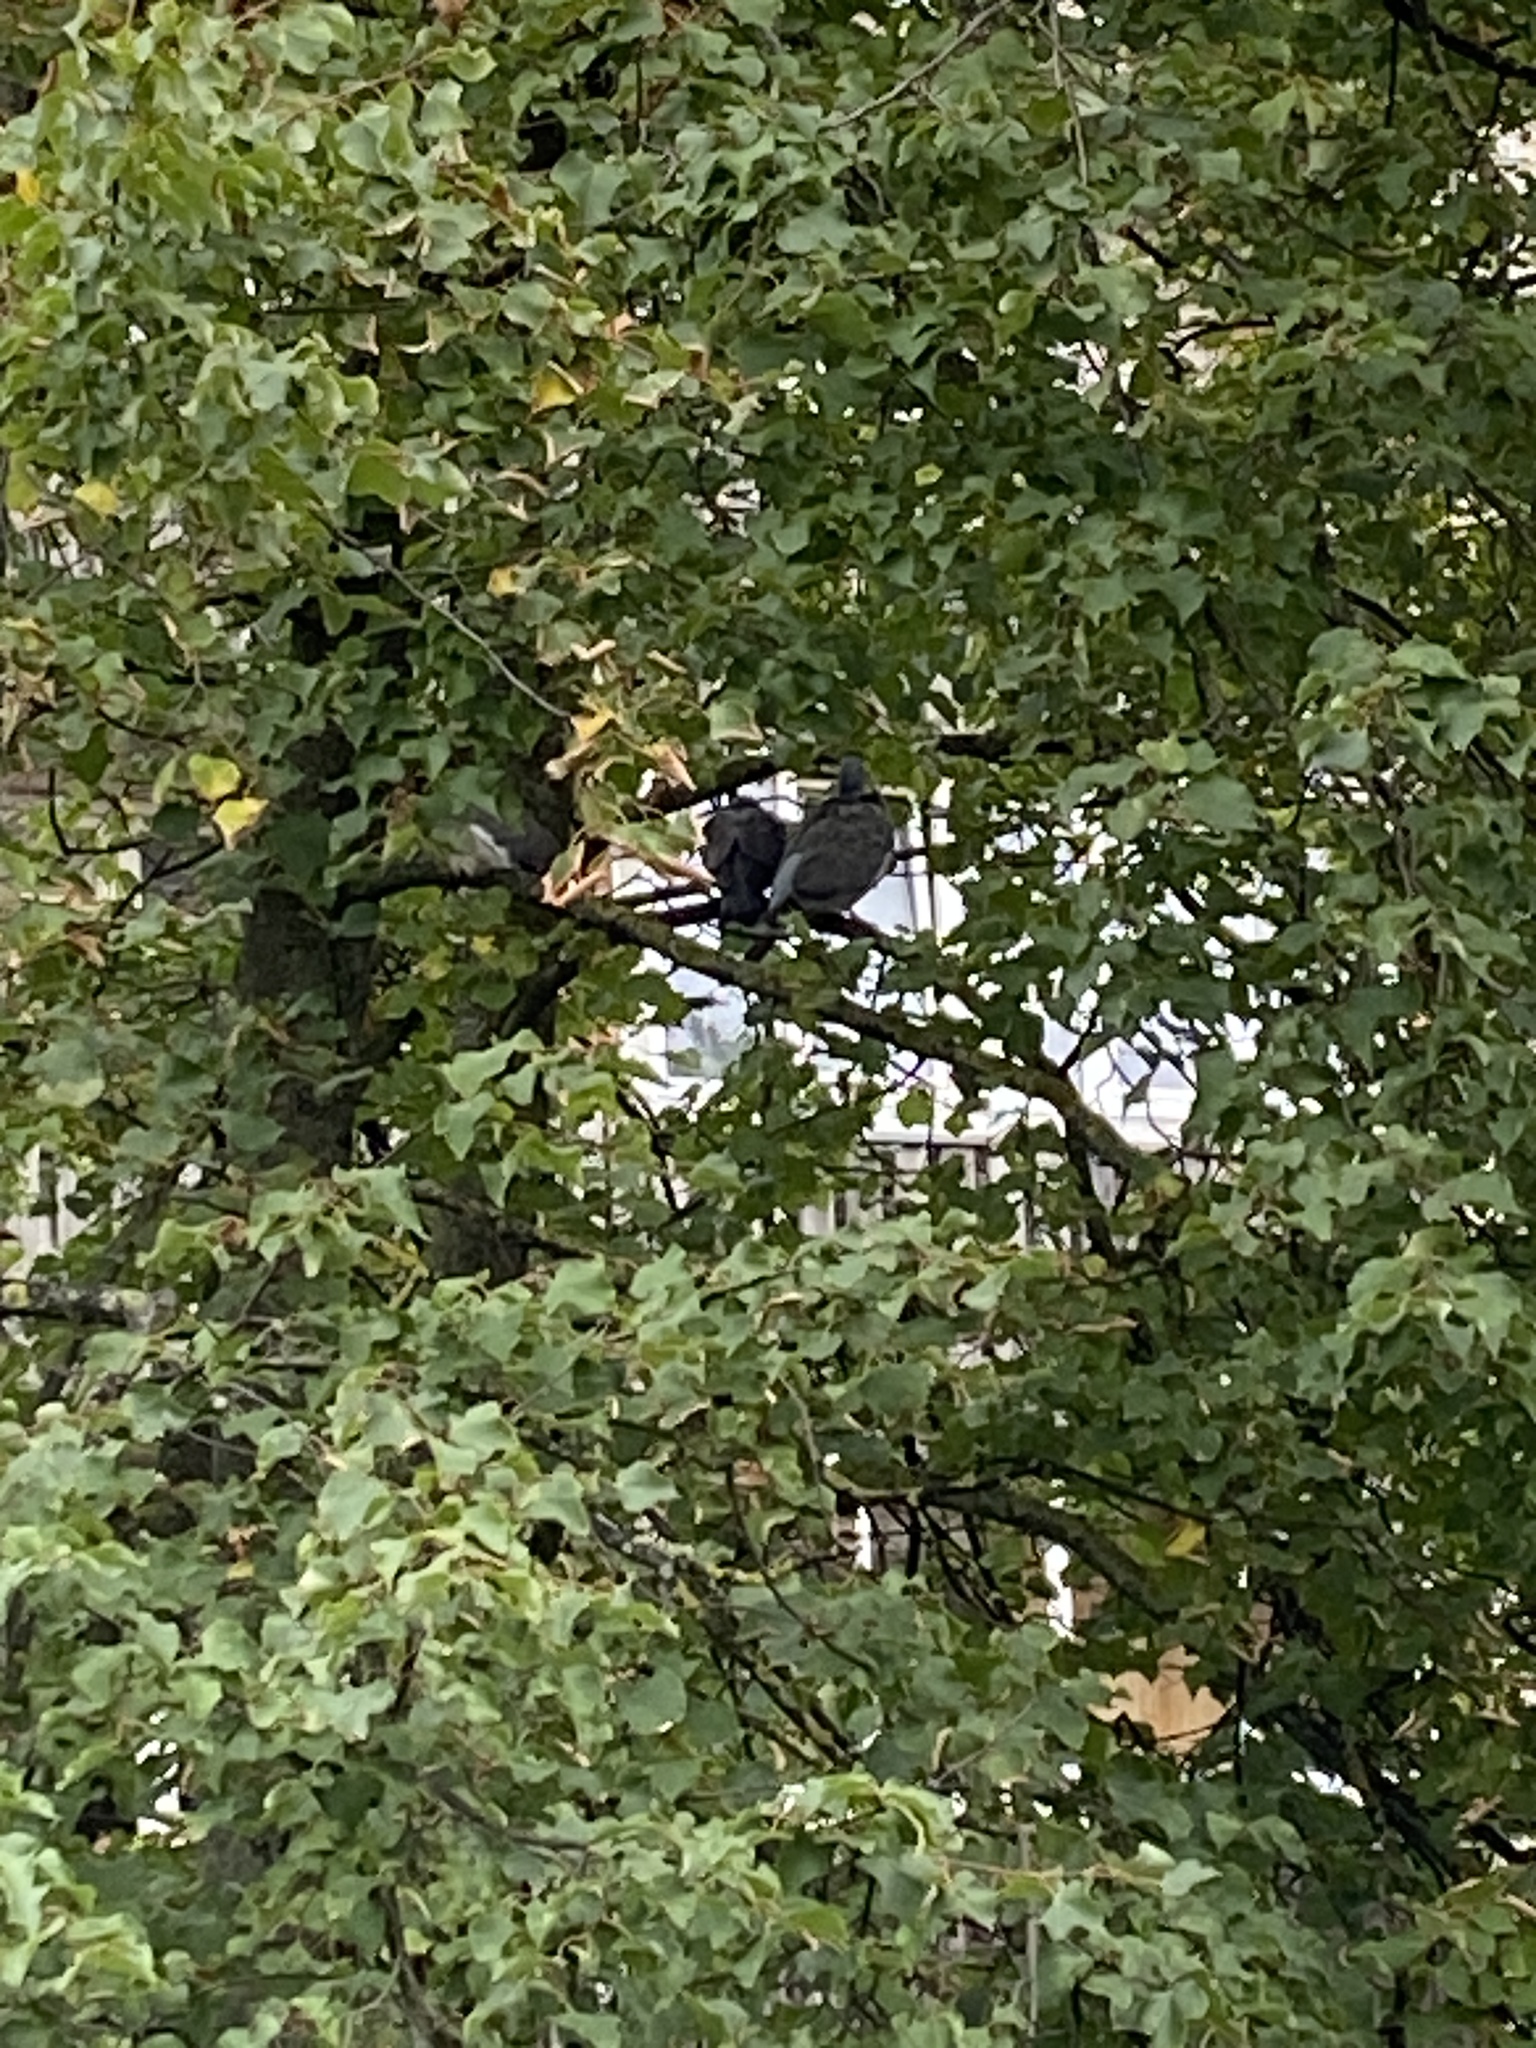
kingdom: Animalia
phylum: Chordata
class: Aves
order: Columbiformes
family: Columbidae
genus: Columba
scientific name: Columba palumbus
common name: Common wood pigeon
